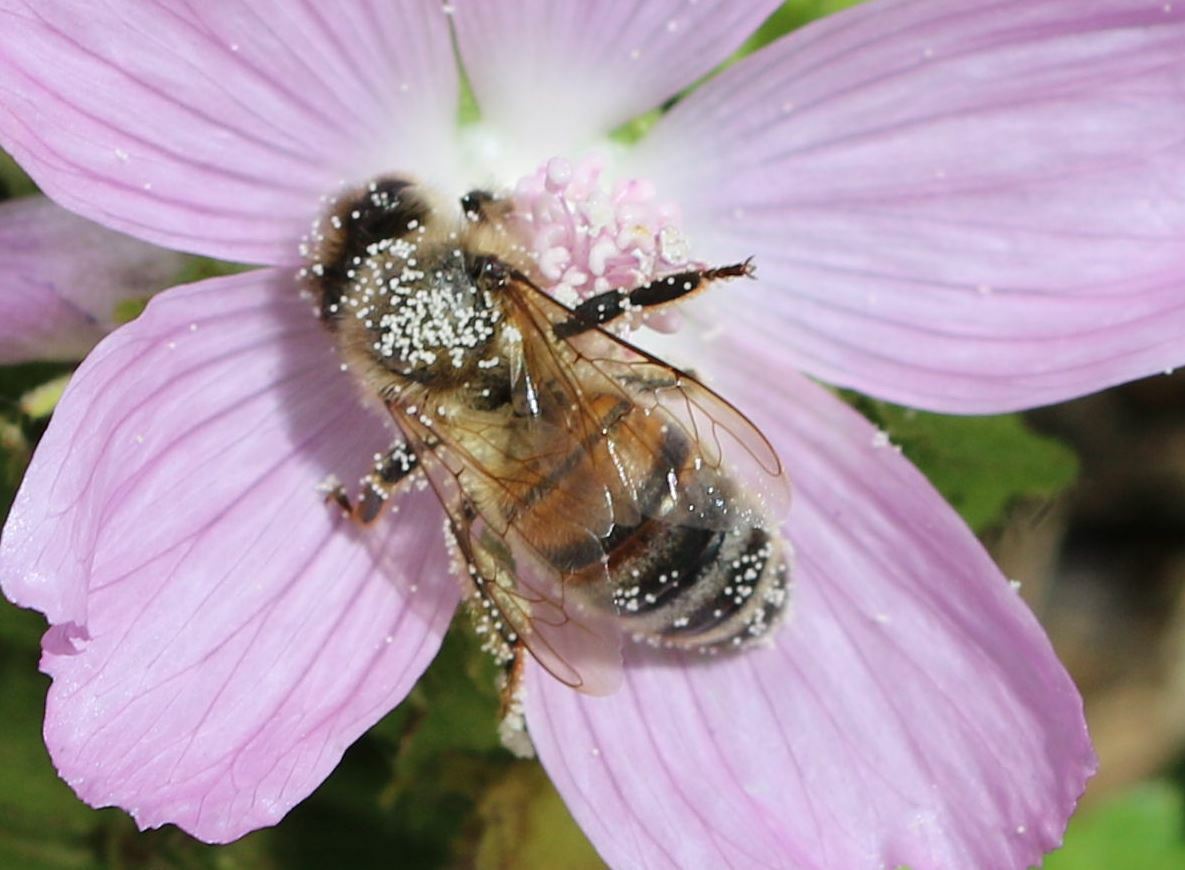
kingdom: Animalia
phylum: Arthropoda
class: Insecta
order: Hymenoptera
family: Apidae
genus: Apis
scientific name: Apis mellifera
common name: Honey bee
